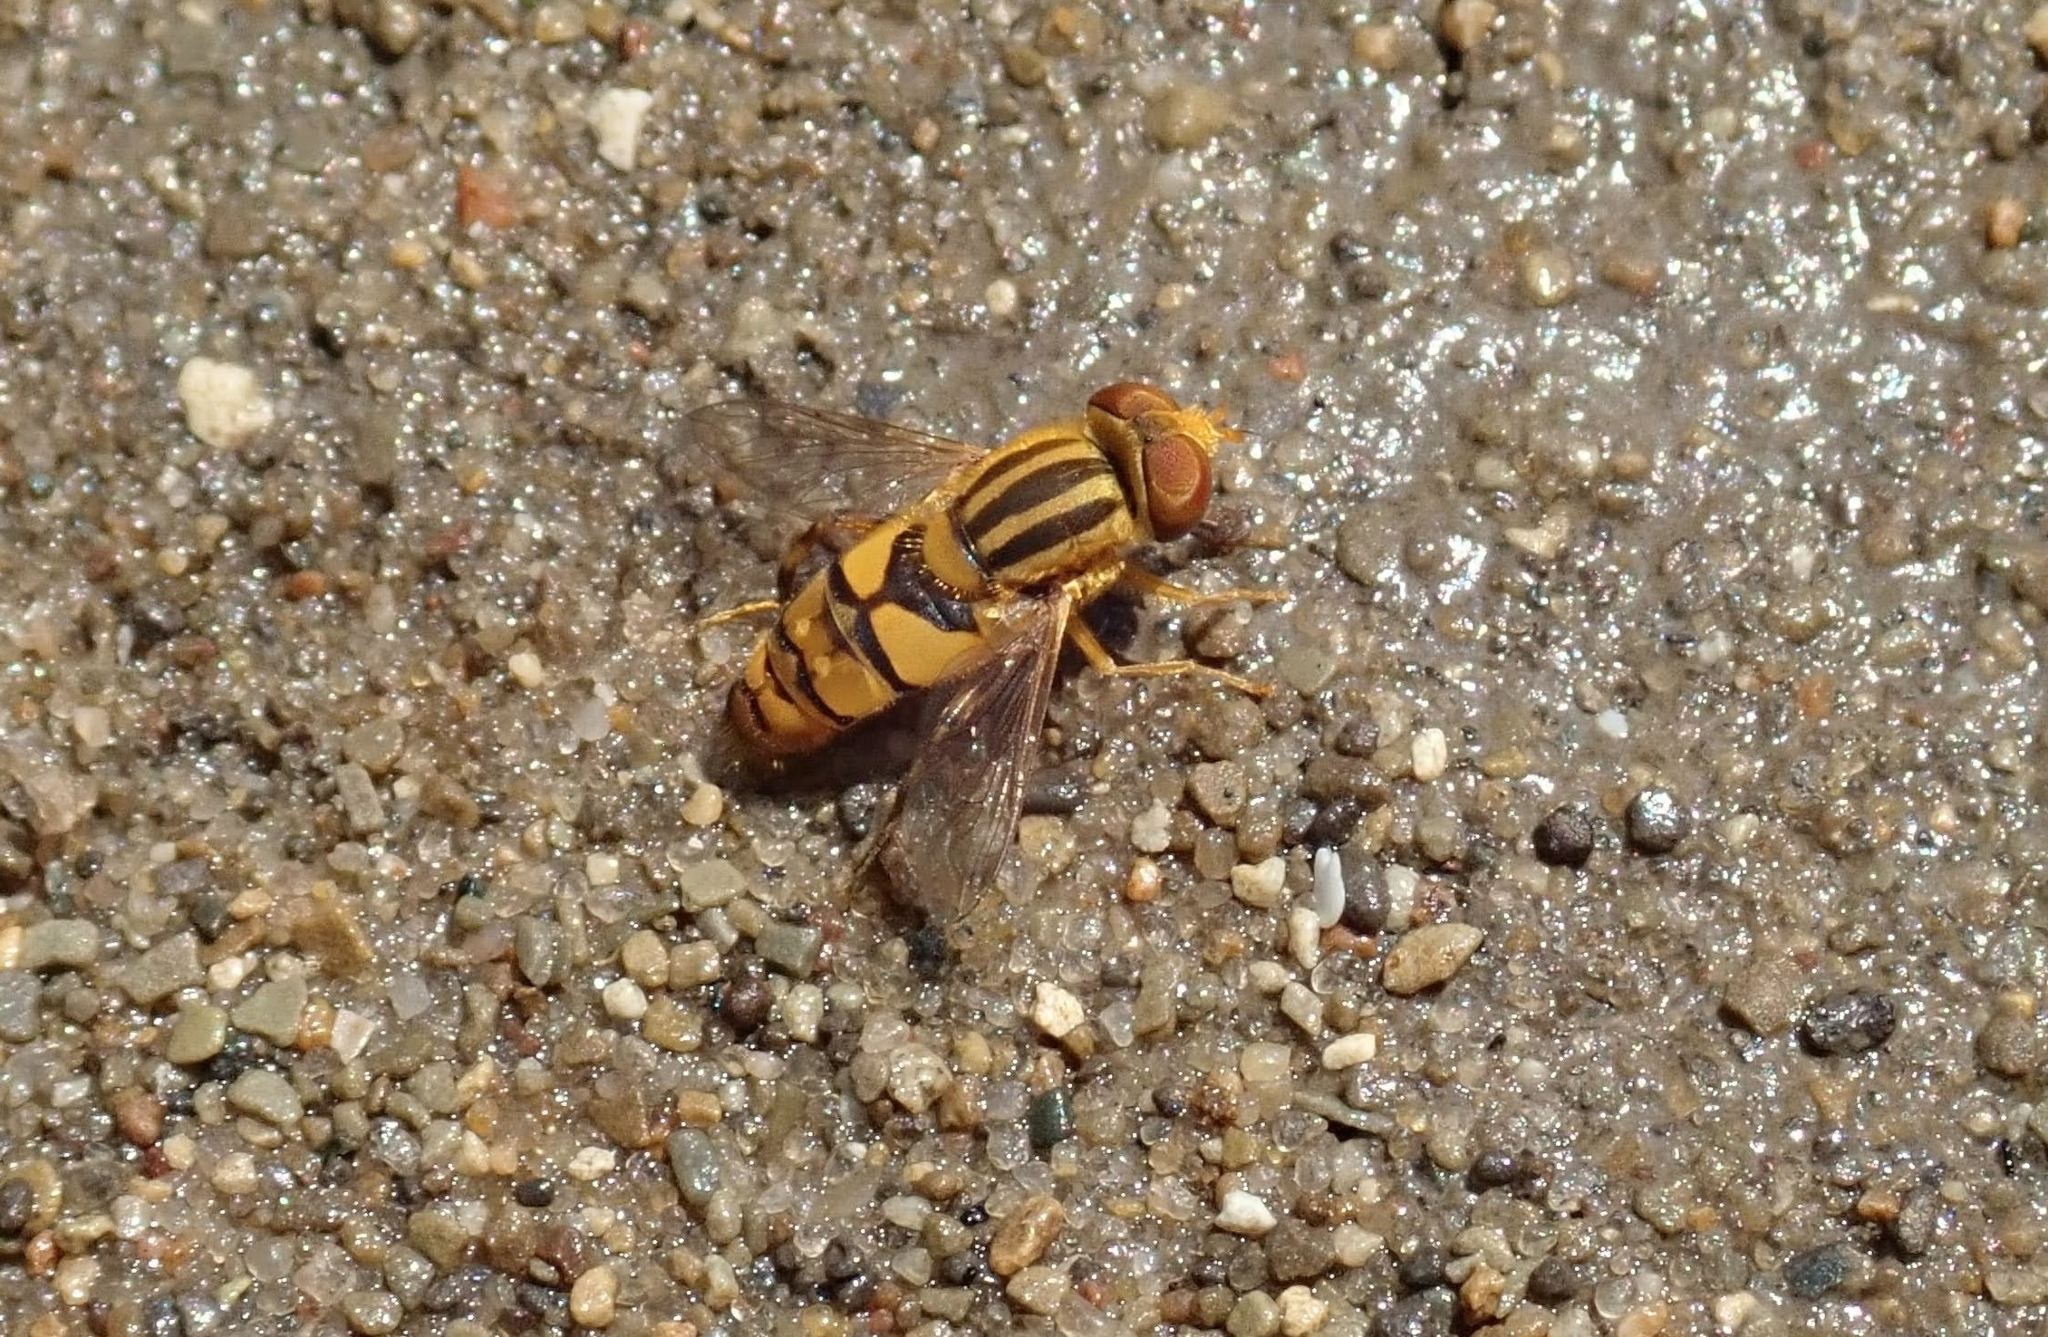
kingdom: Animalia
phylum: Arthropoda
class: Insecta
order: Diptera
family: Syrphidae
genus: Parhelophilus
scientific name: Parhelophilus integer
